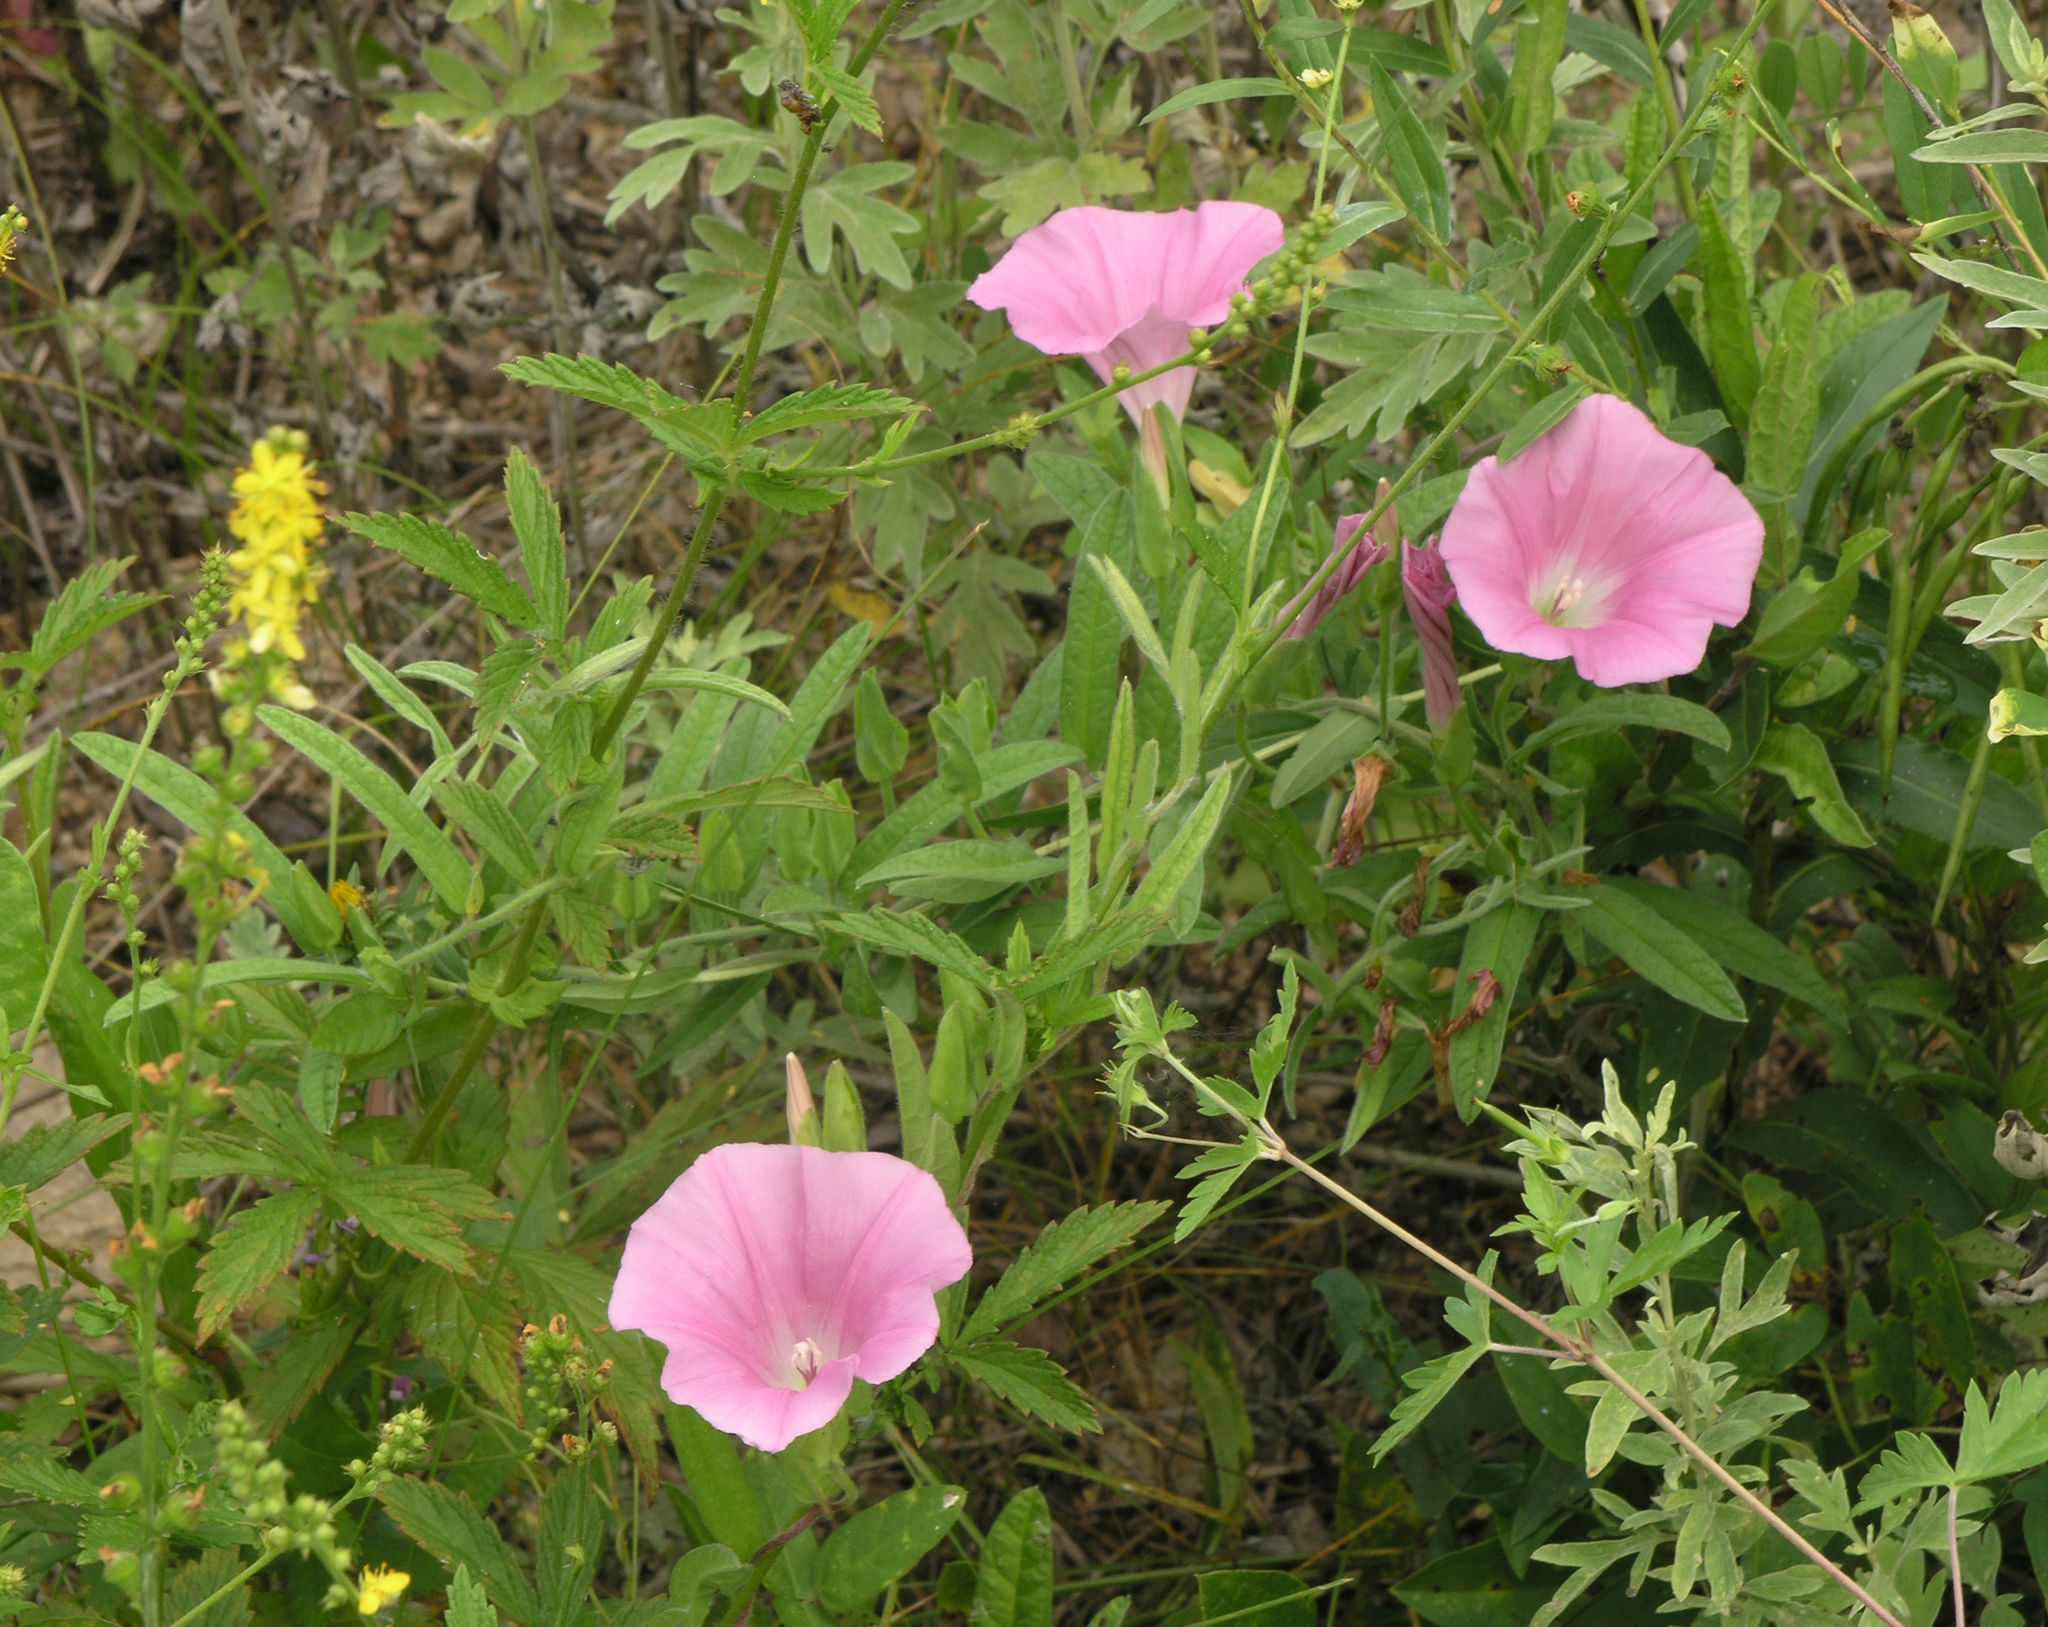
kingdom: Plantae
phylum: Tracheophyta
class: Magnoliopsida
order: Solanales
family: Convolvulaceae
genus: Calystegia
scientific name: Calystegia pellita
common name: Hairy bindweed
